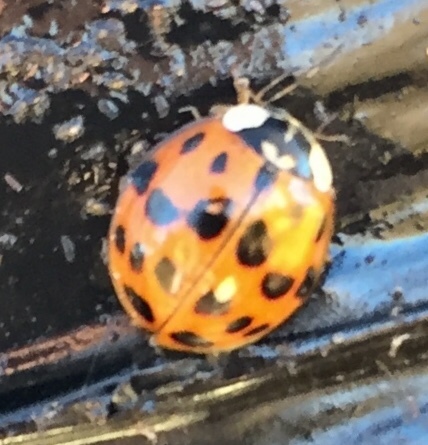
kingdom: Animalia
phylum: Arthropoda
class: Insecta
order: Coleoptera
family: Coccinellidae
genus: Harmonia
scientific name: Harmonia axyridis
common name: Harlequin ladybird
